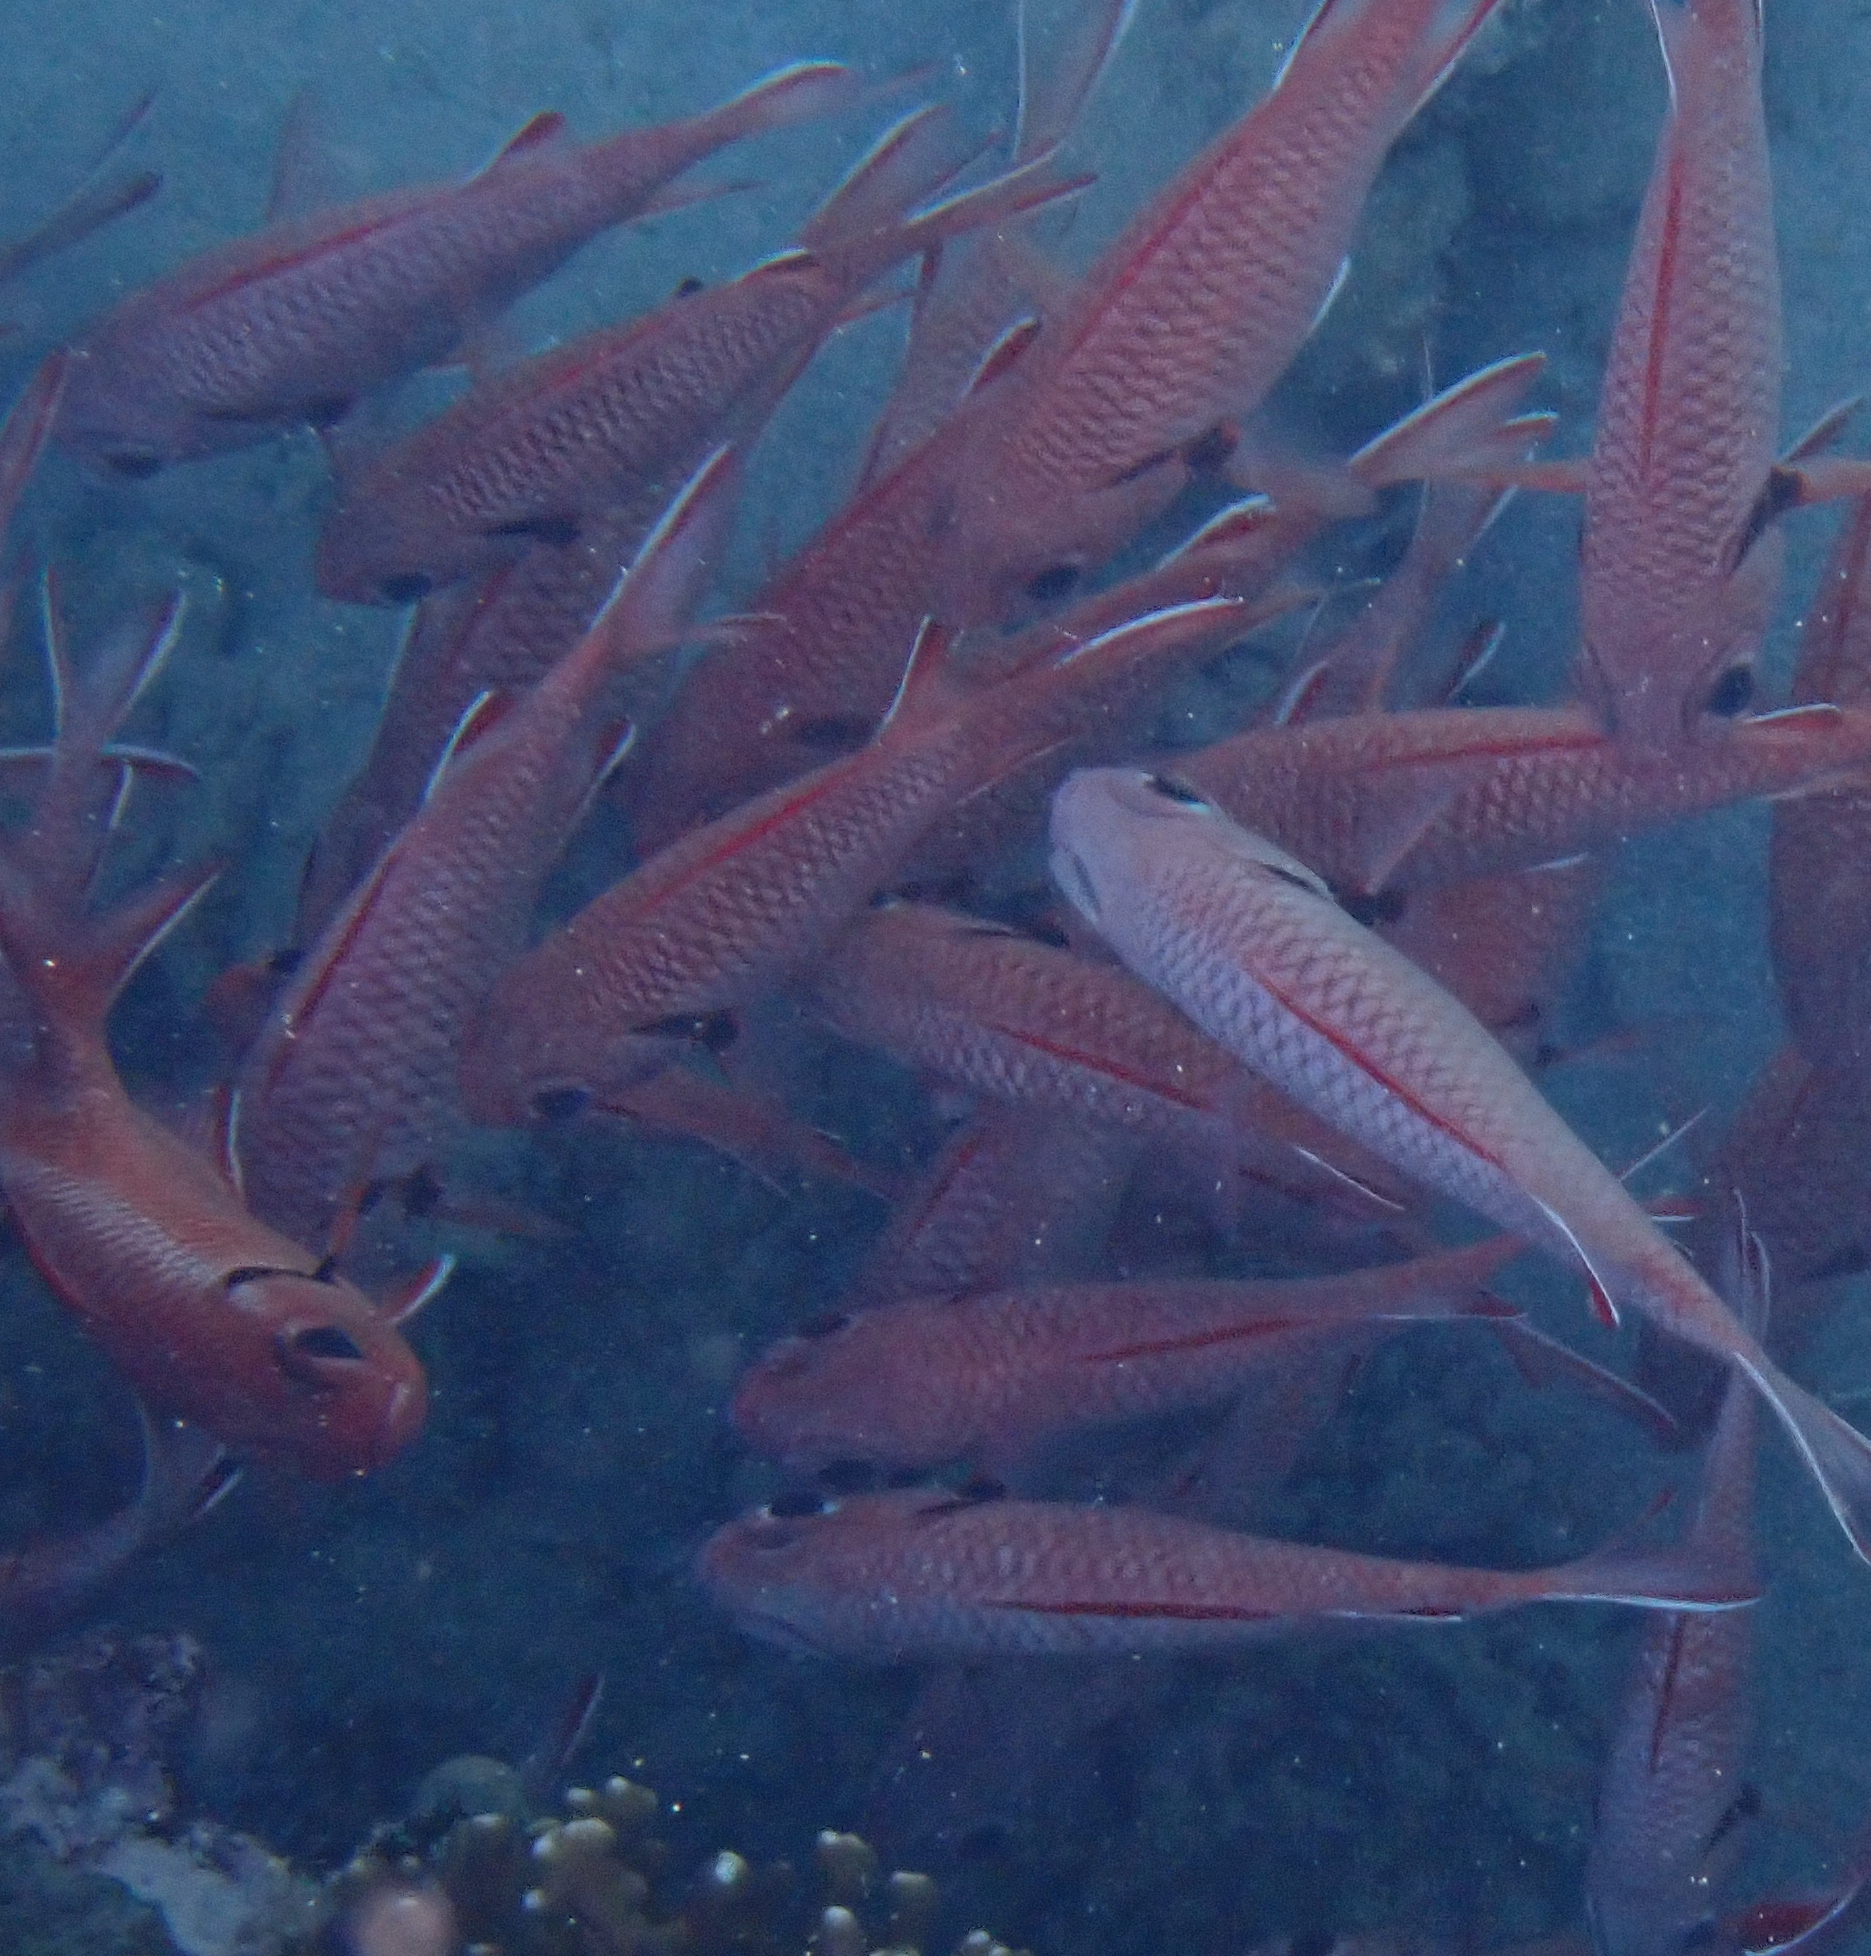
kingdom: Animalia
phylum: Chordata
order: Beryciformes
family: Holocentridae
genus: Myripristis
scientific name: Myripristis murdjan
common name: Big-eye soldierfish
